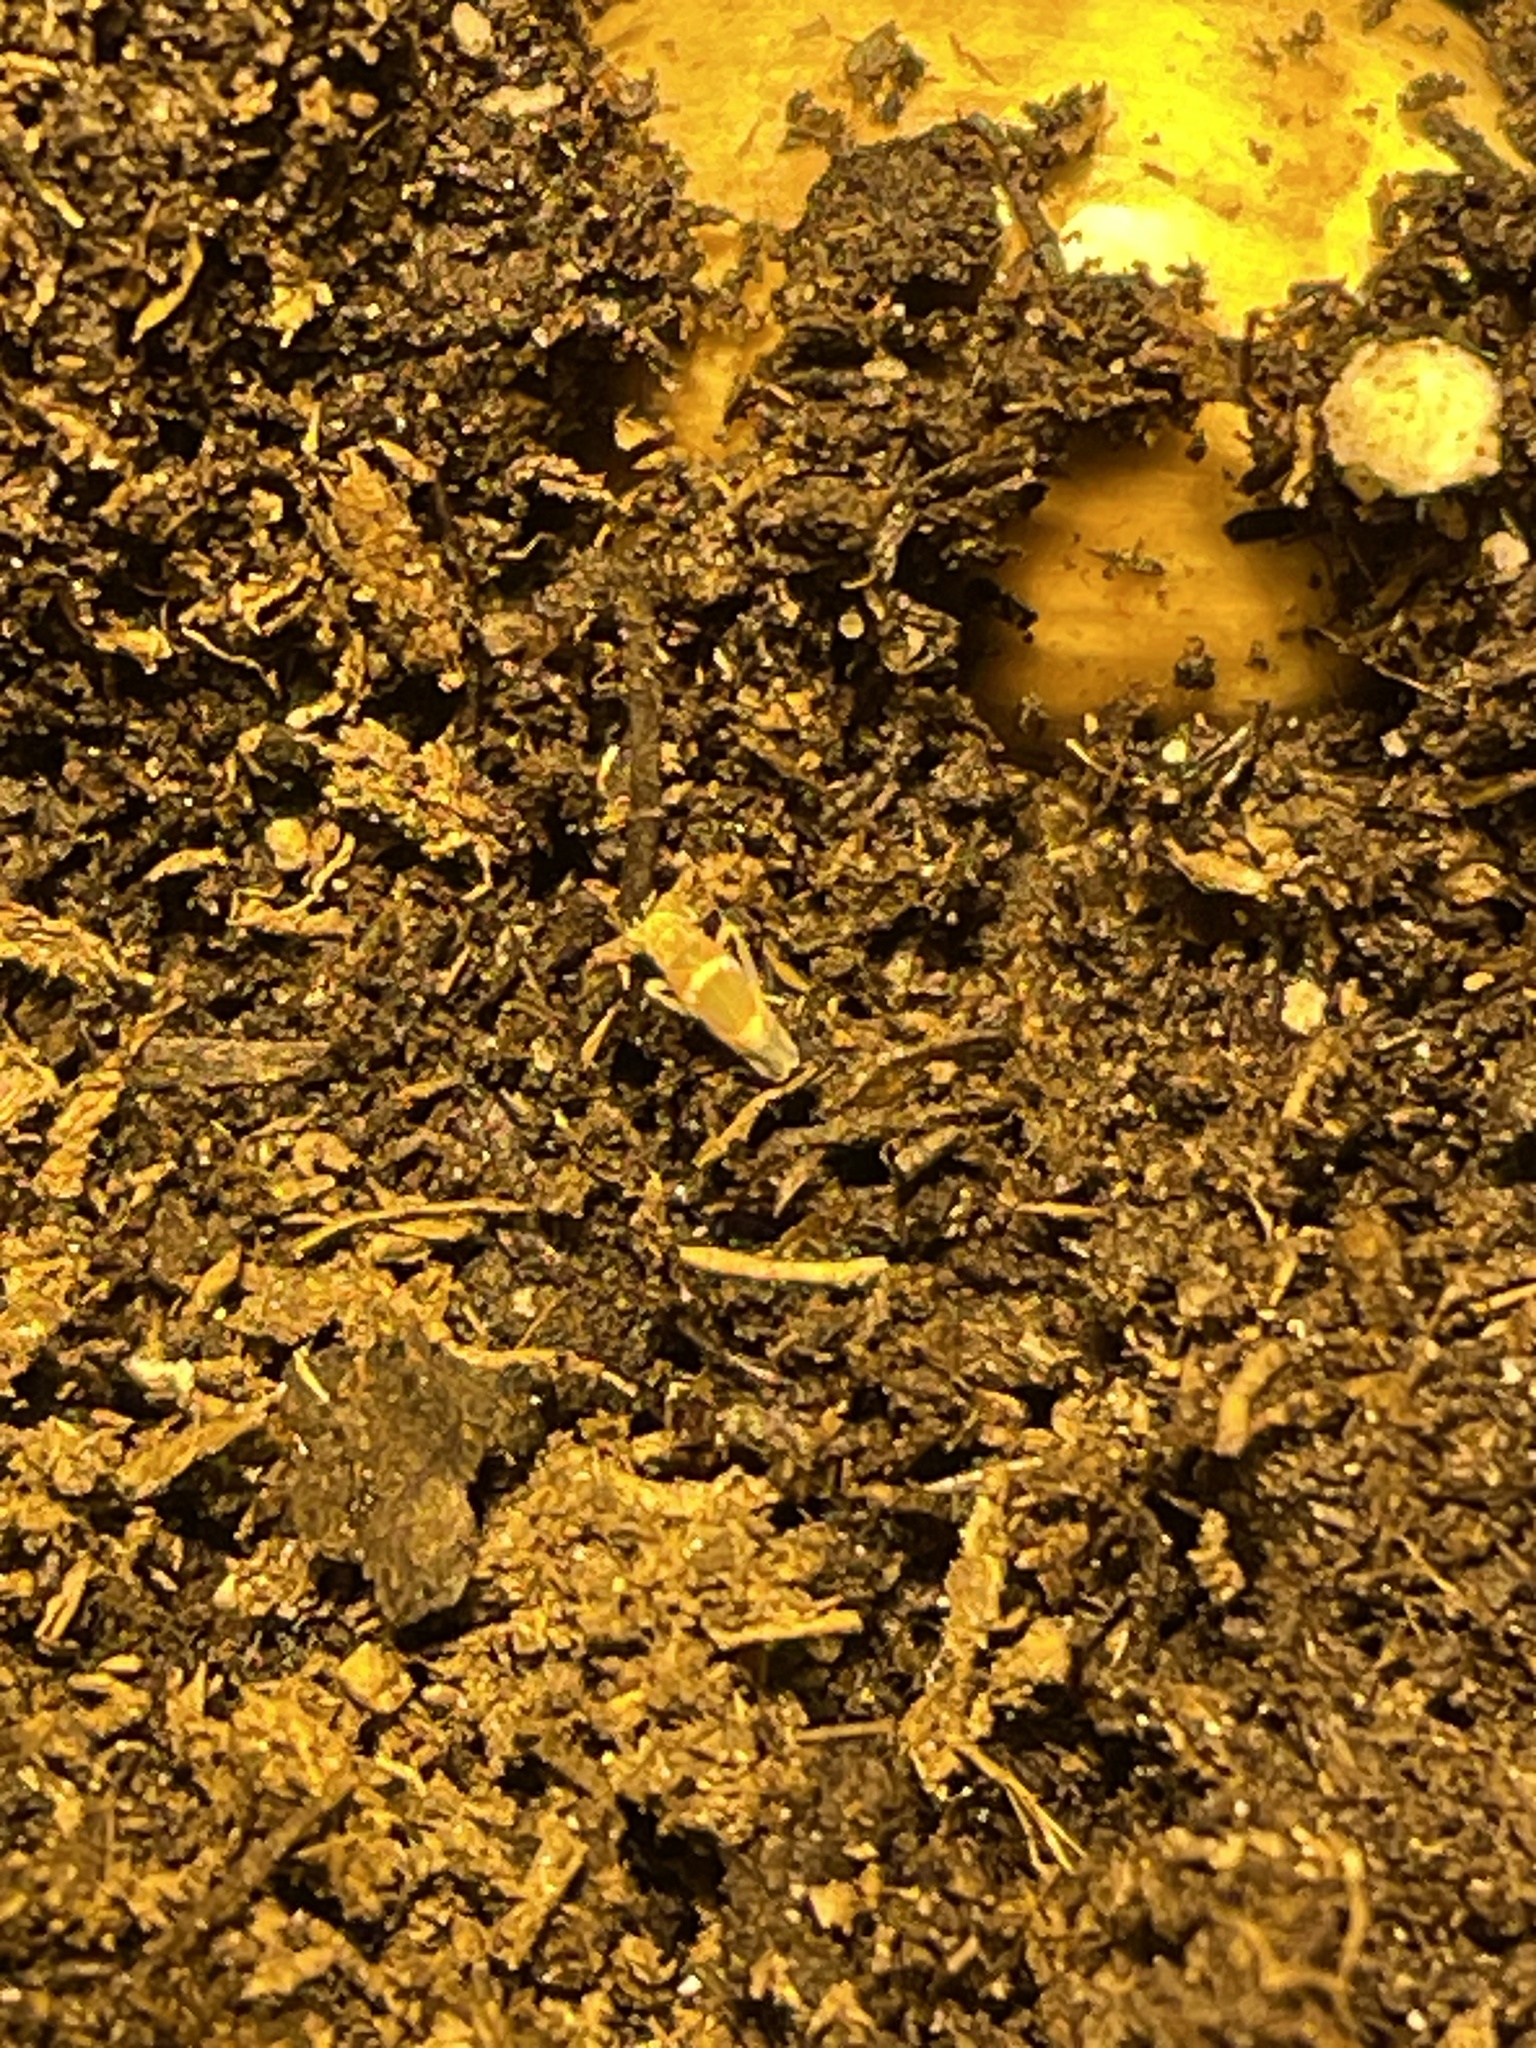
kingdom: Animalia
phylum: Arthropoda
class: Insecta
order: Hemiptera
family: Cicadellidae
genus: Erythroneura
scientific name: Erythroneura vitis
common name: Grapevine leafhopper
